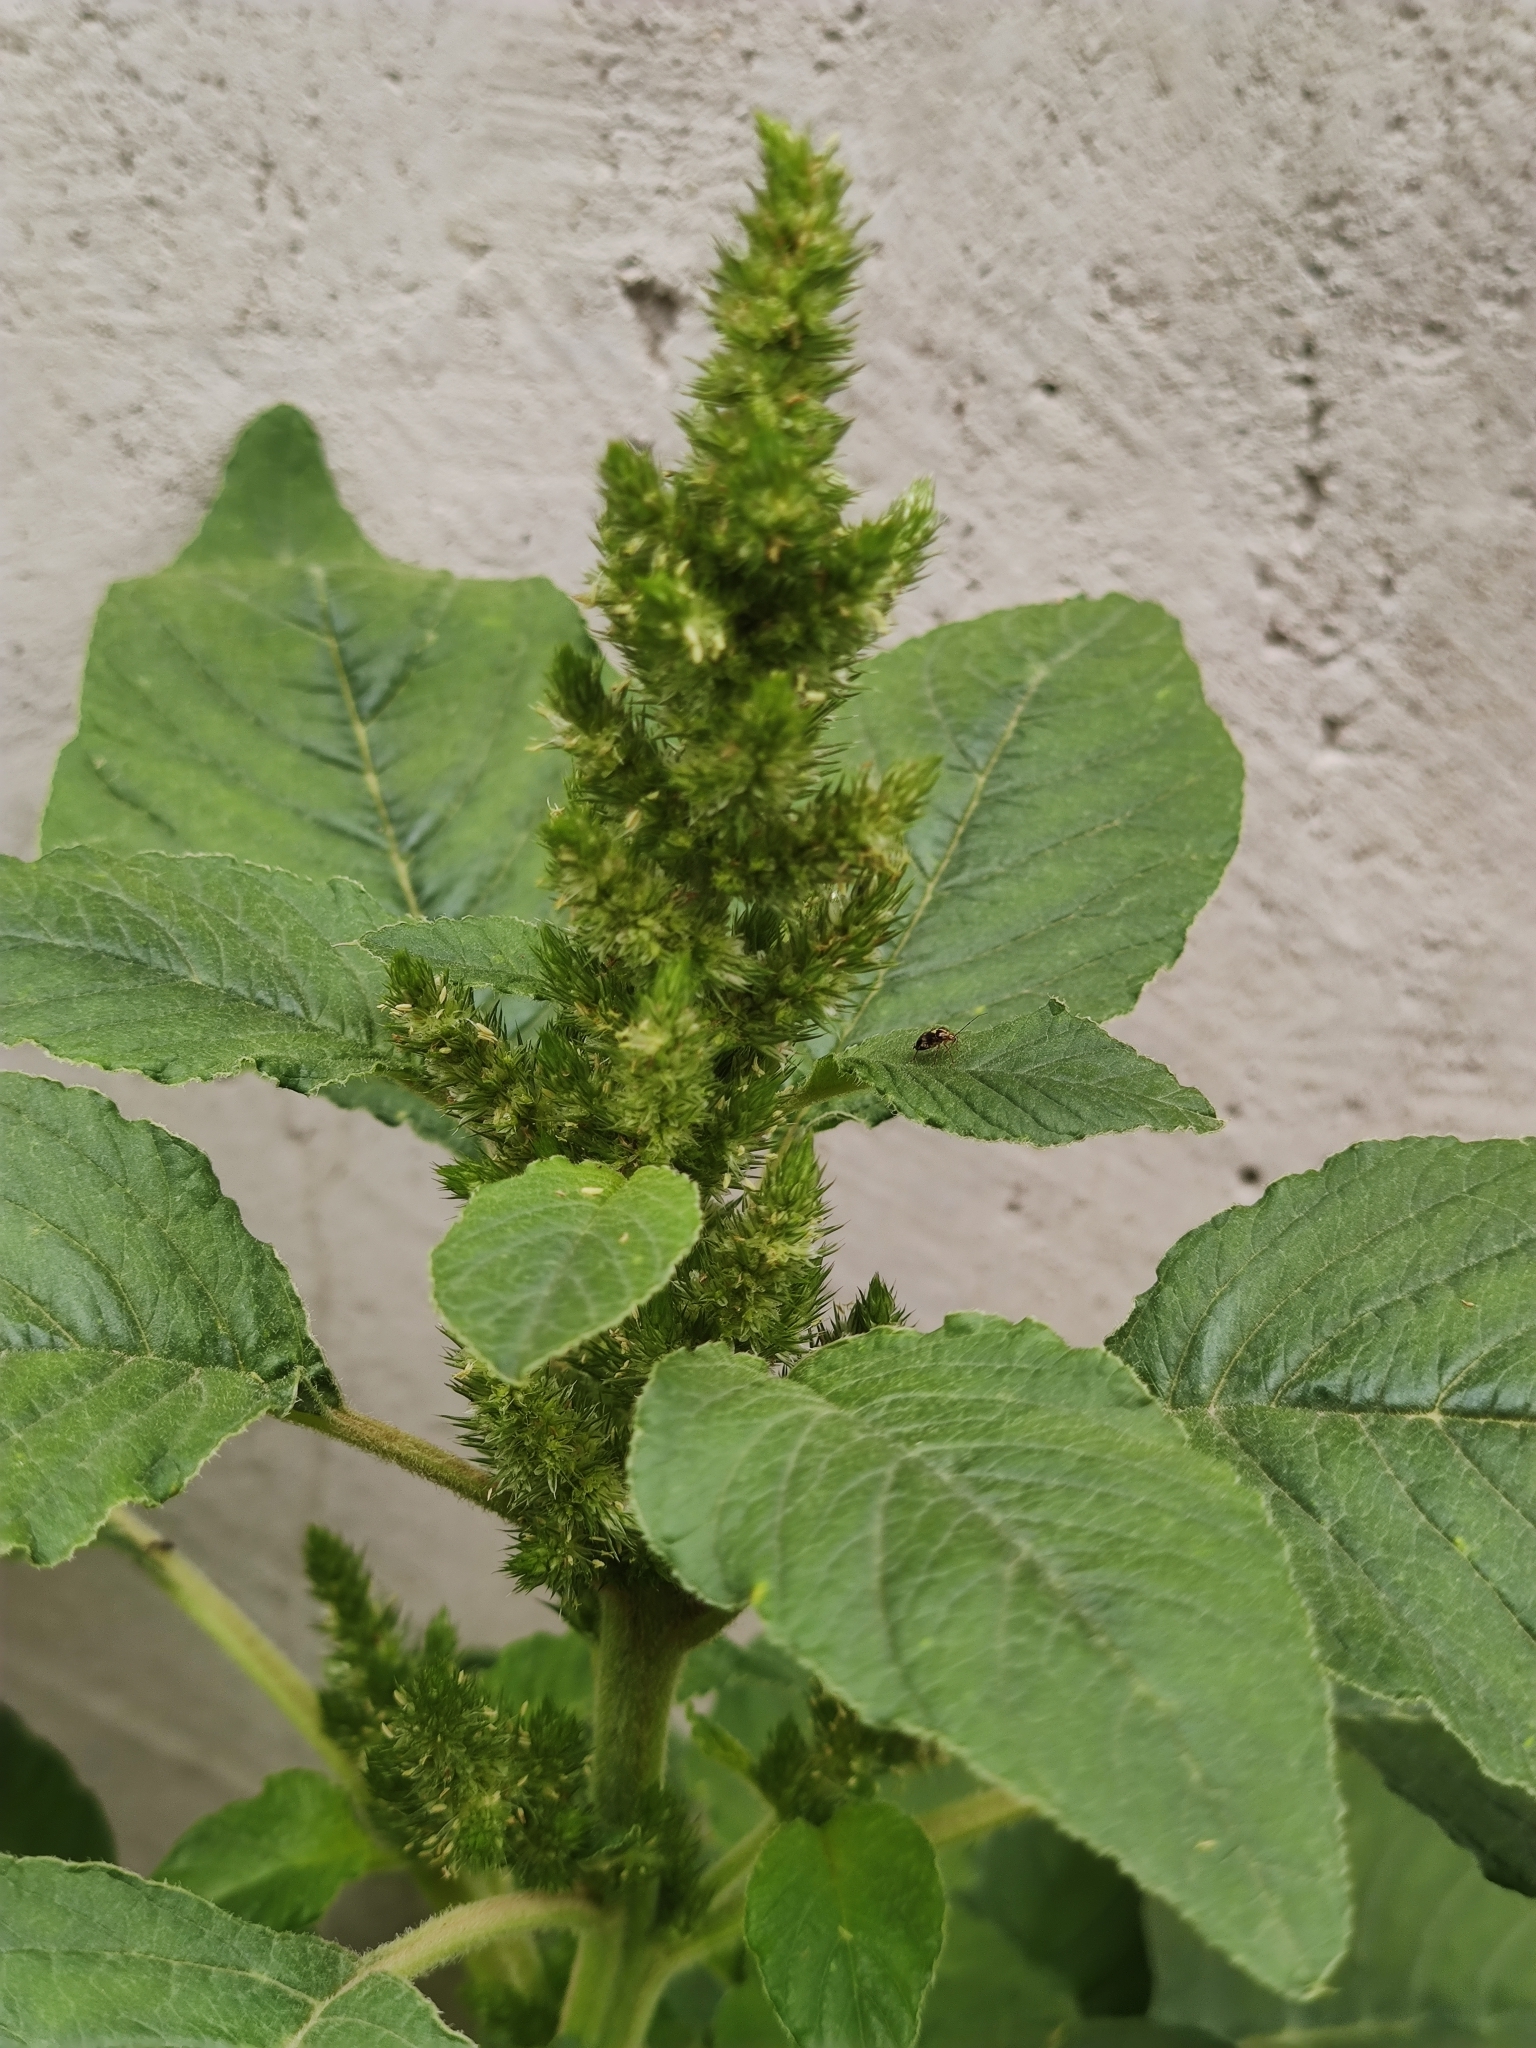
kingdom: Plantae
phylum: Tracheophyta
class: Magnoliopsida
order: Caryophyllales
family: Amaranthaceae
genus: Amaranthus
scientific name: Amaranthus retroflexus
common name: Redroot amaranth
